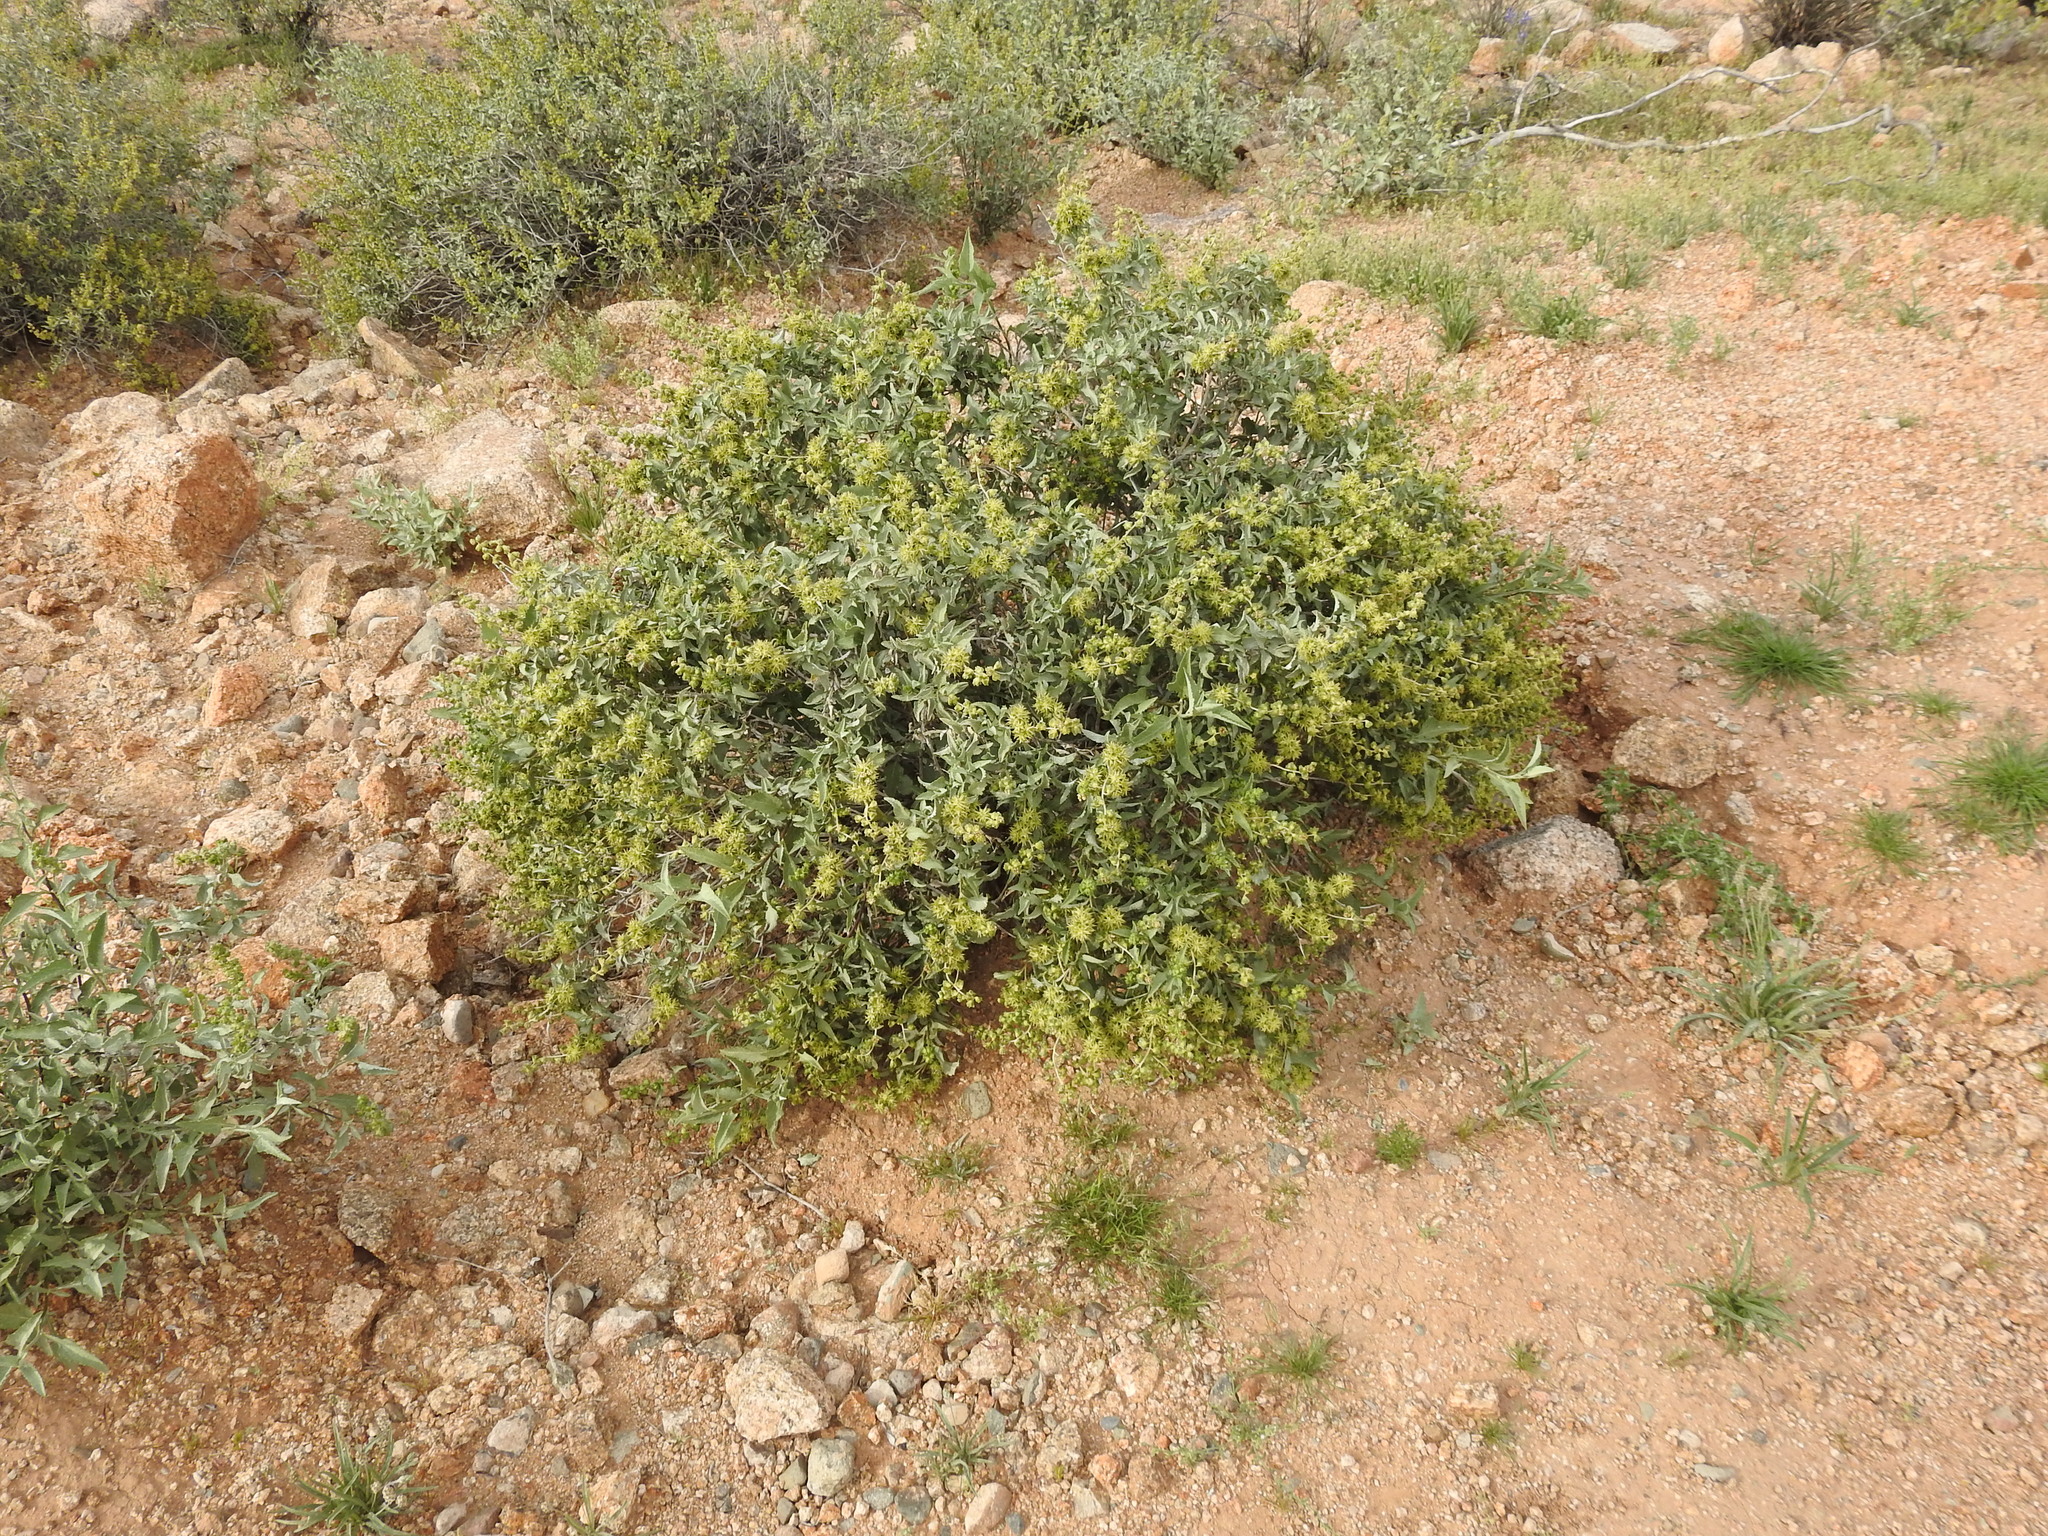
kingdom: Plantae
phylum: Tracheophyta
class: Magnoliopsida
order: Asterales
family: Asteraceae
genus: Ambrosia
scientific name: Ambrosia deltoidea
